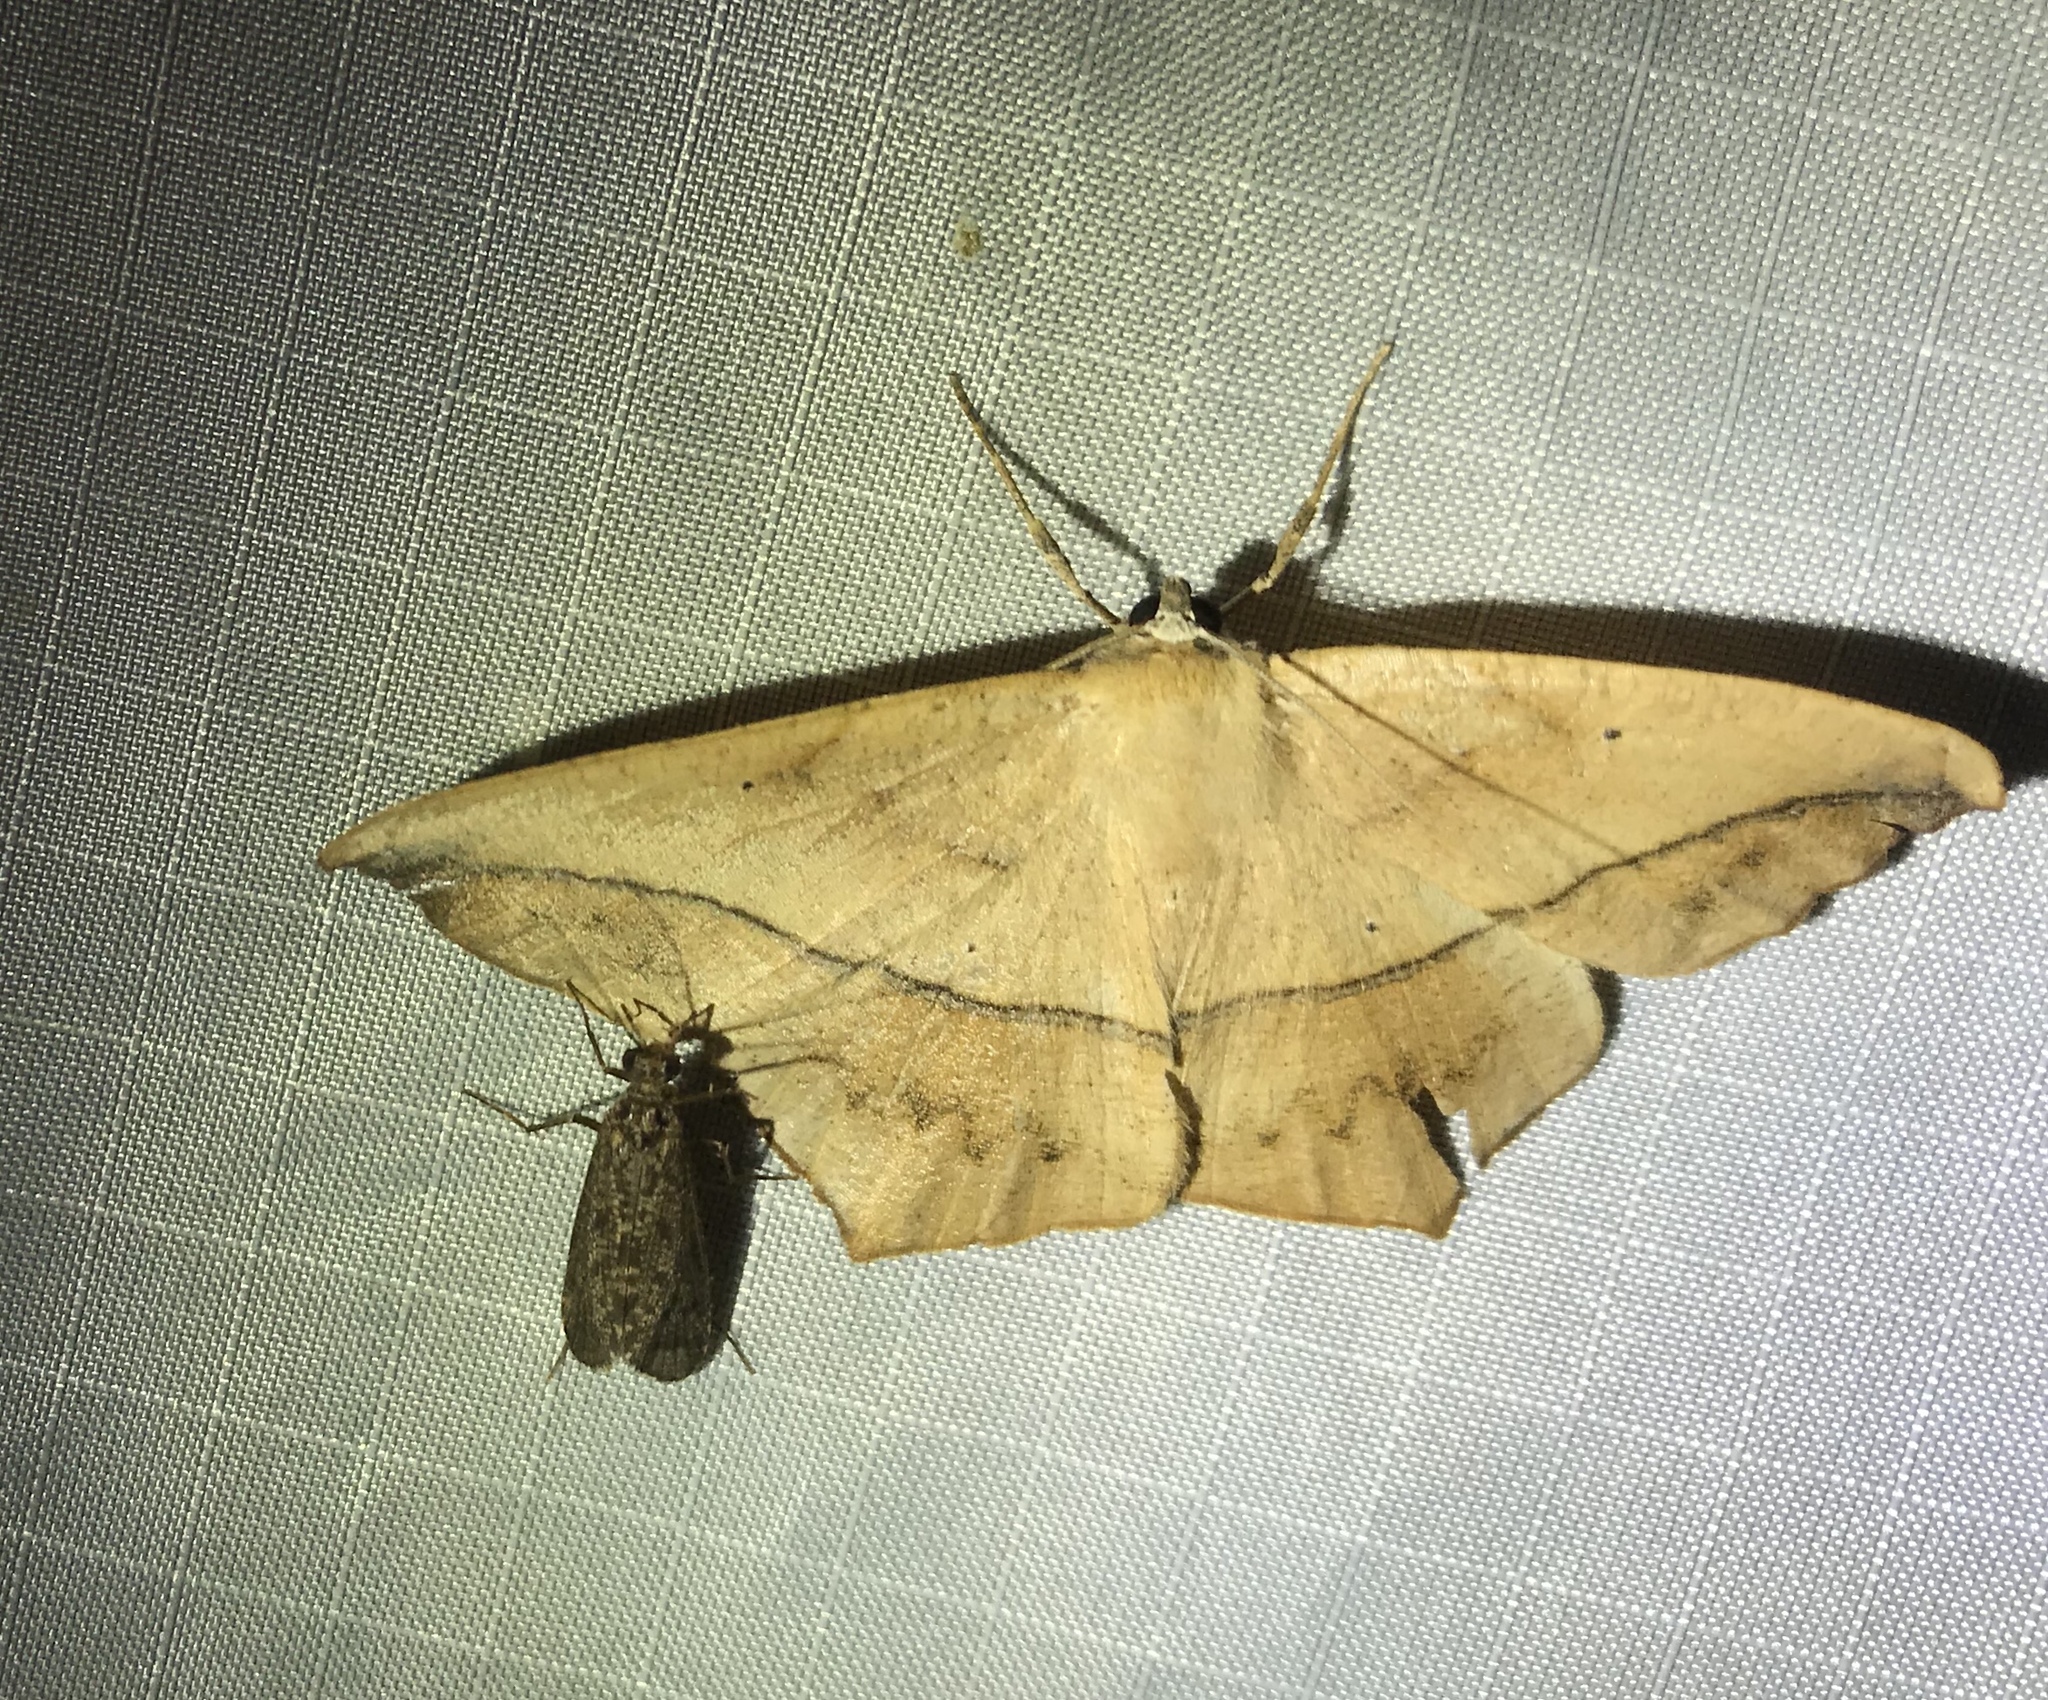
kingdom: Animalia
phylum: Arthropoda
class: Insecta
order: Lepidoptera
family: Geometridae
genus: Prochoerodes
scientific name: Prochoerodes lineola
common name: Large maple spanworm
